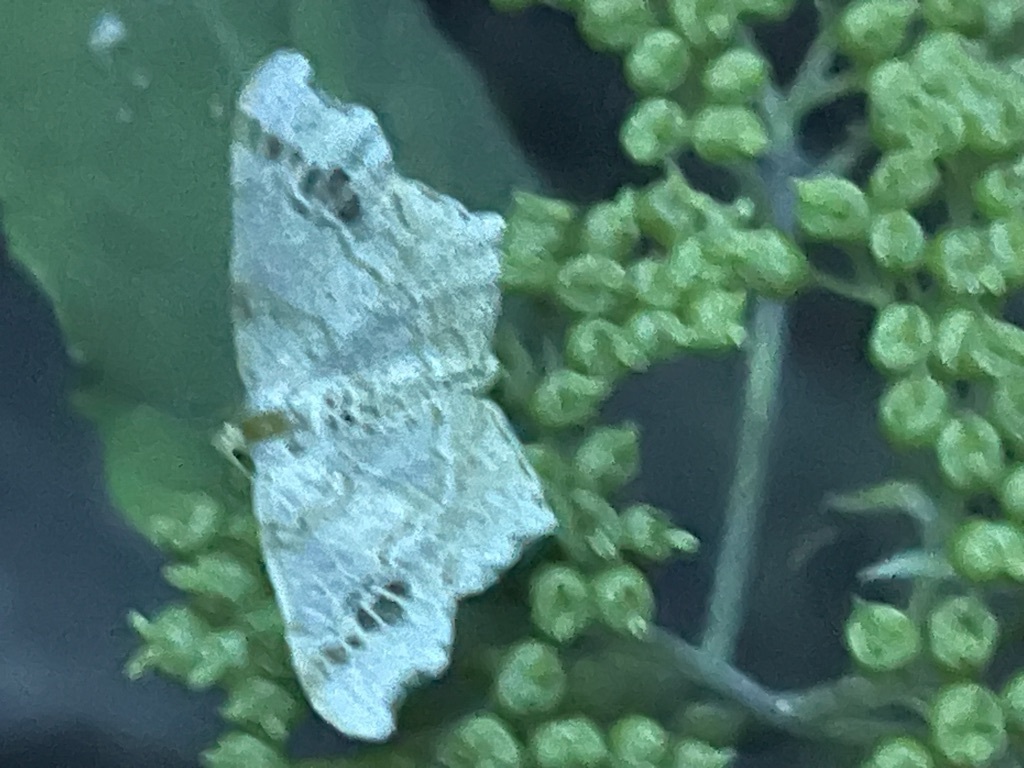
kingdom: Animalia
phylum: Arthropoda
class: Insecta
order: Lepidoptera
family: Geometridae
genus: Macaria
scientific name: Macaria aemulataria
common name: Common angle
